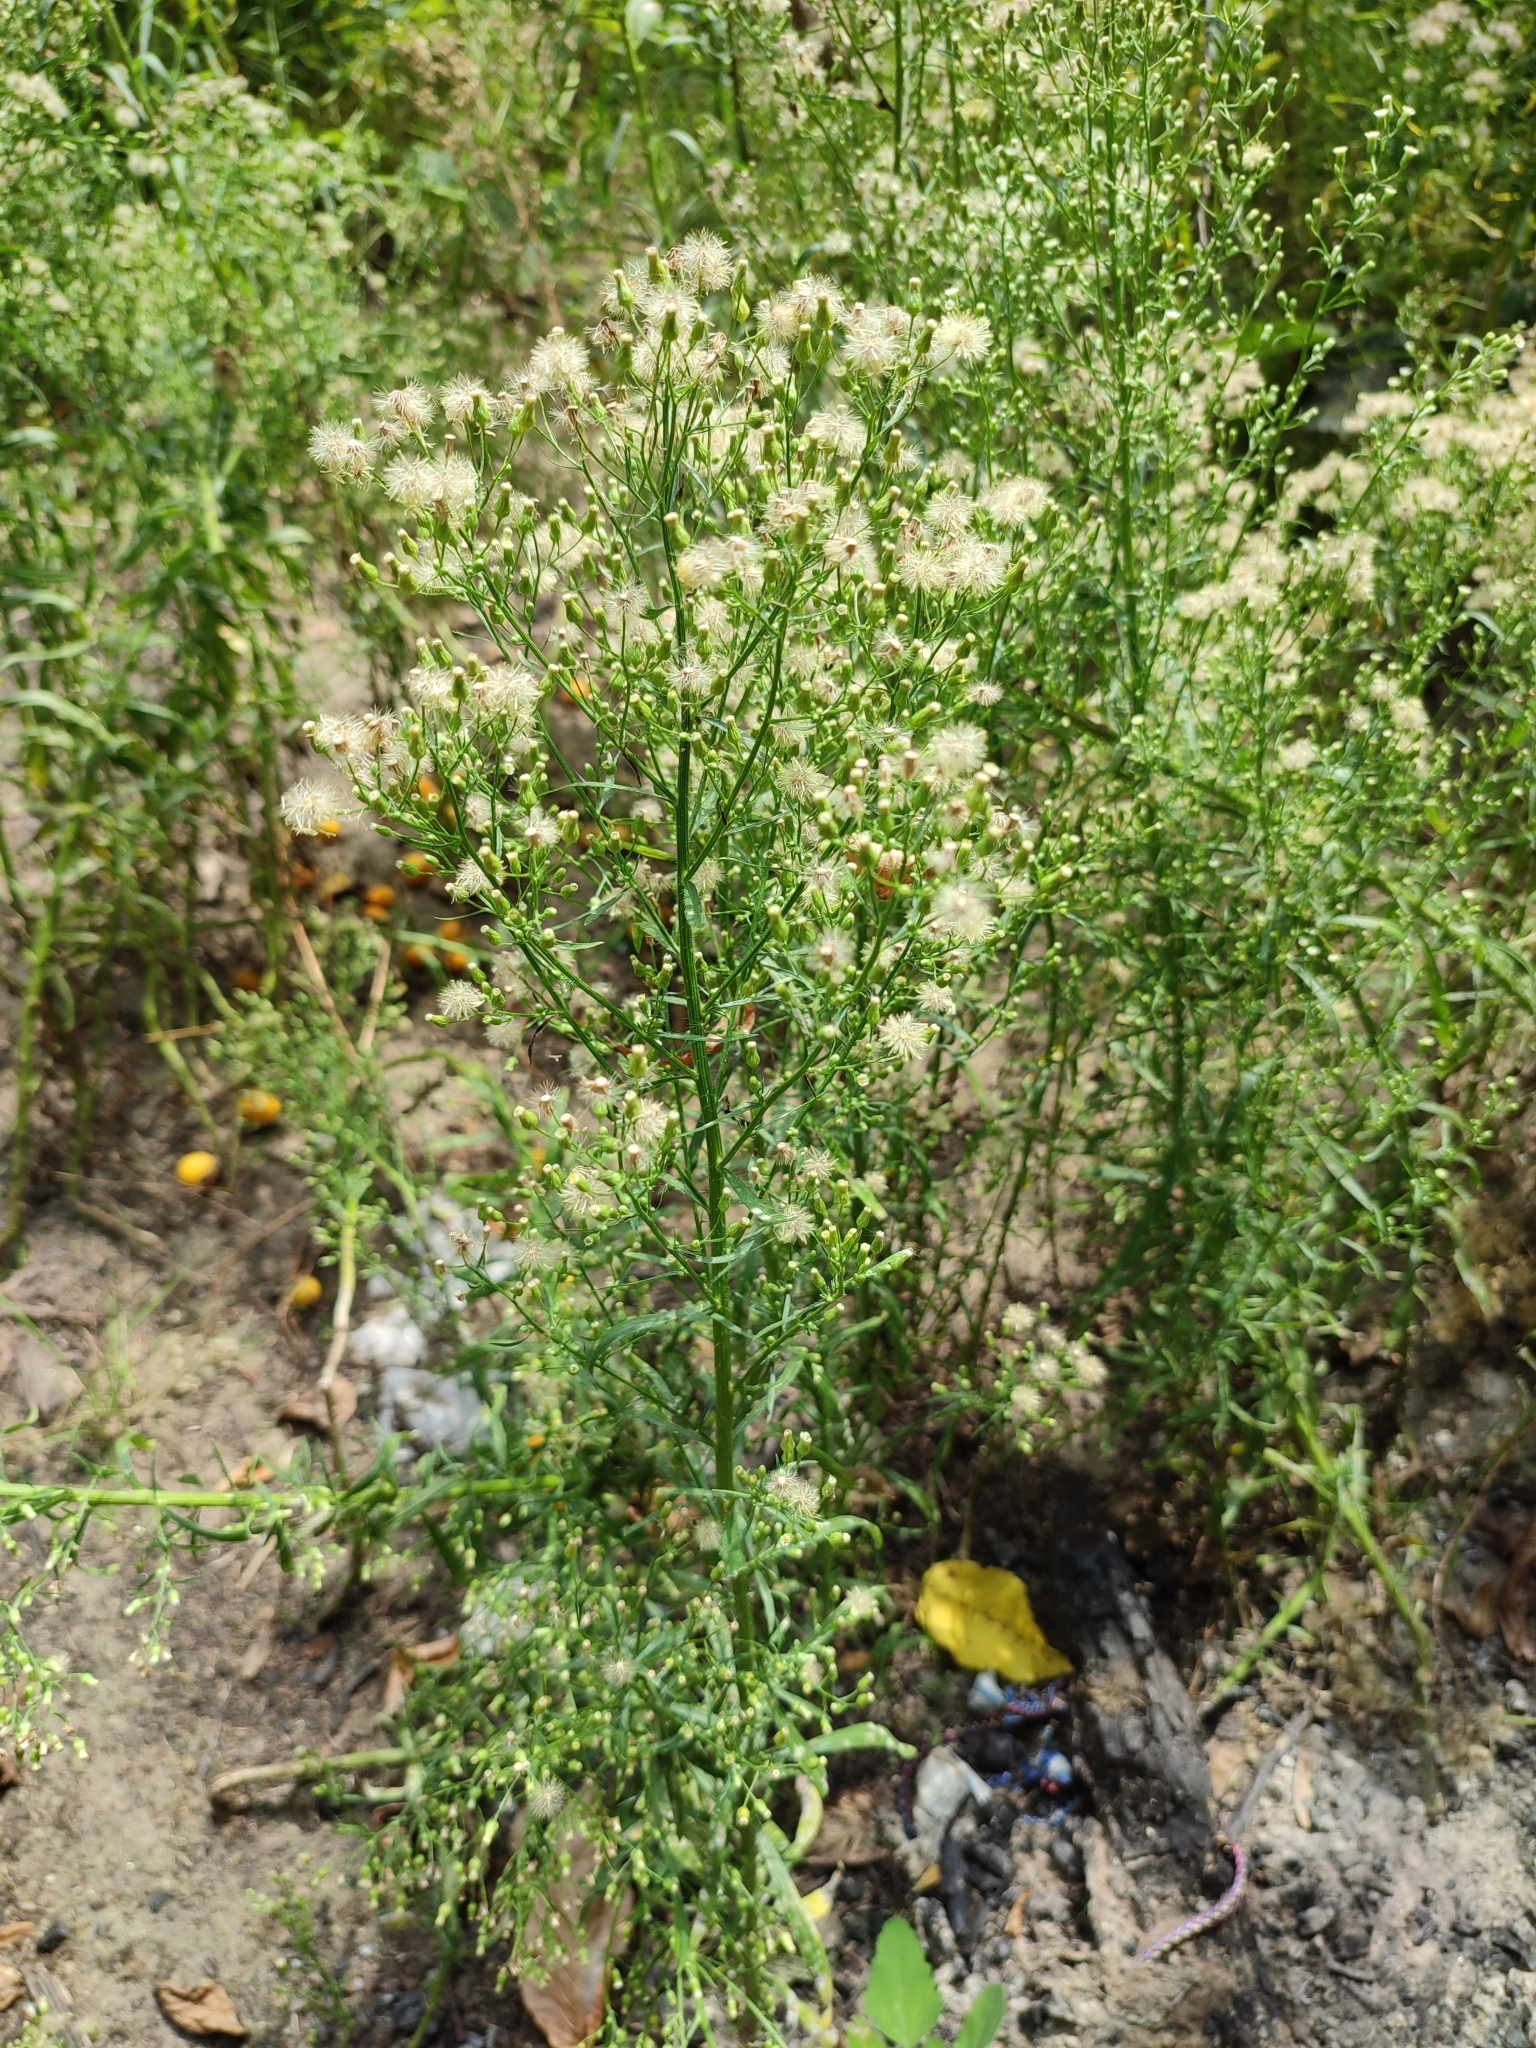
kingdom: Plantae
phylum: Tracheophyta
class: Magnoliopsida
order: Asterales
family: Asteraceae
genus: Erigeron
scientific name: Erigeron canadensis
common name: Canadian fleabane
